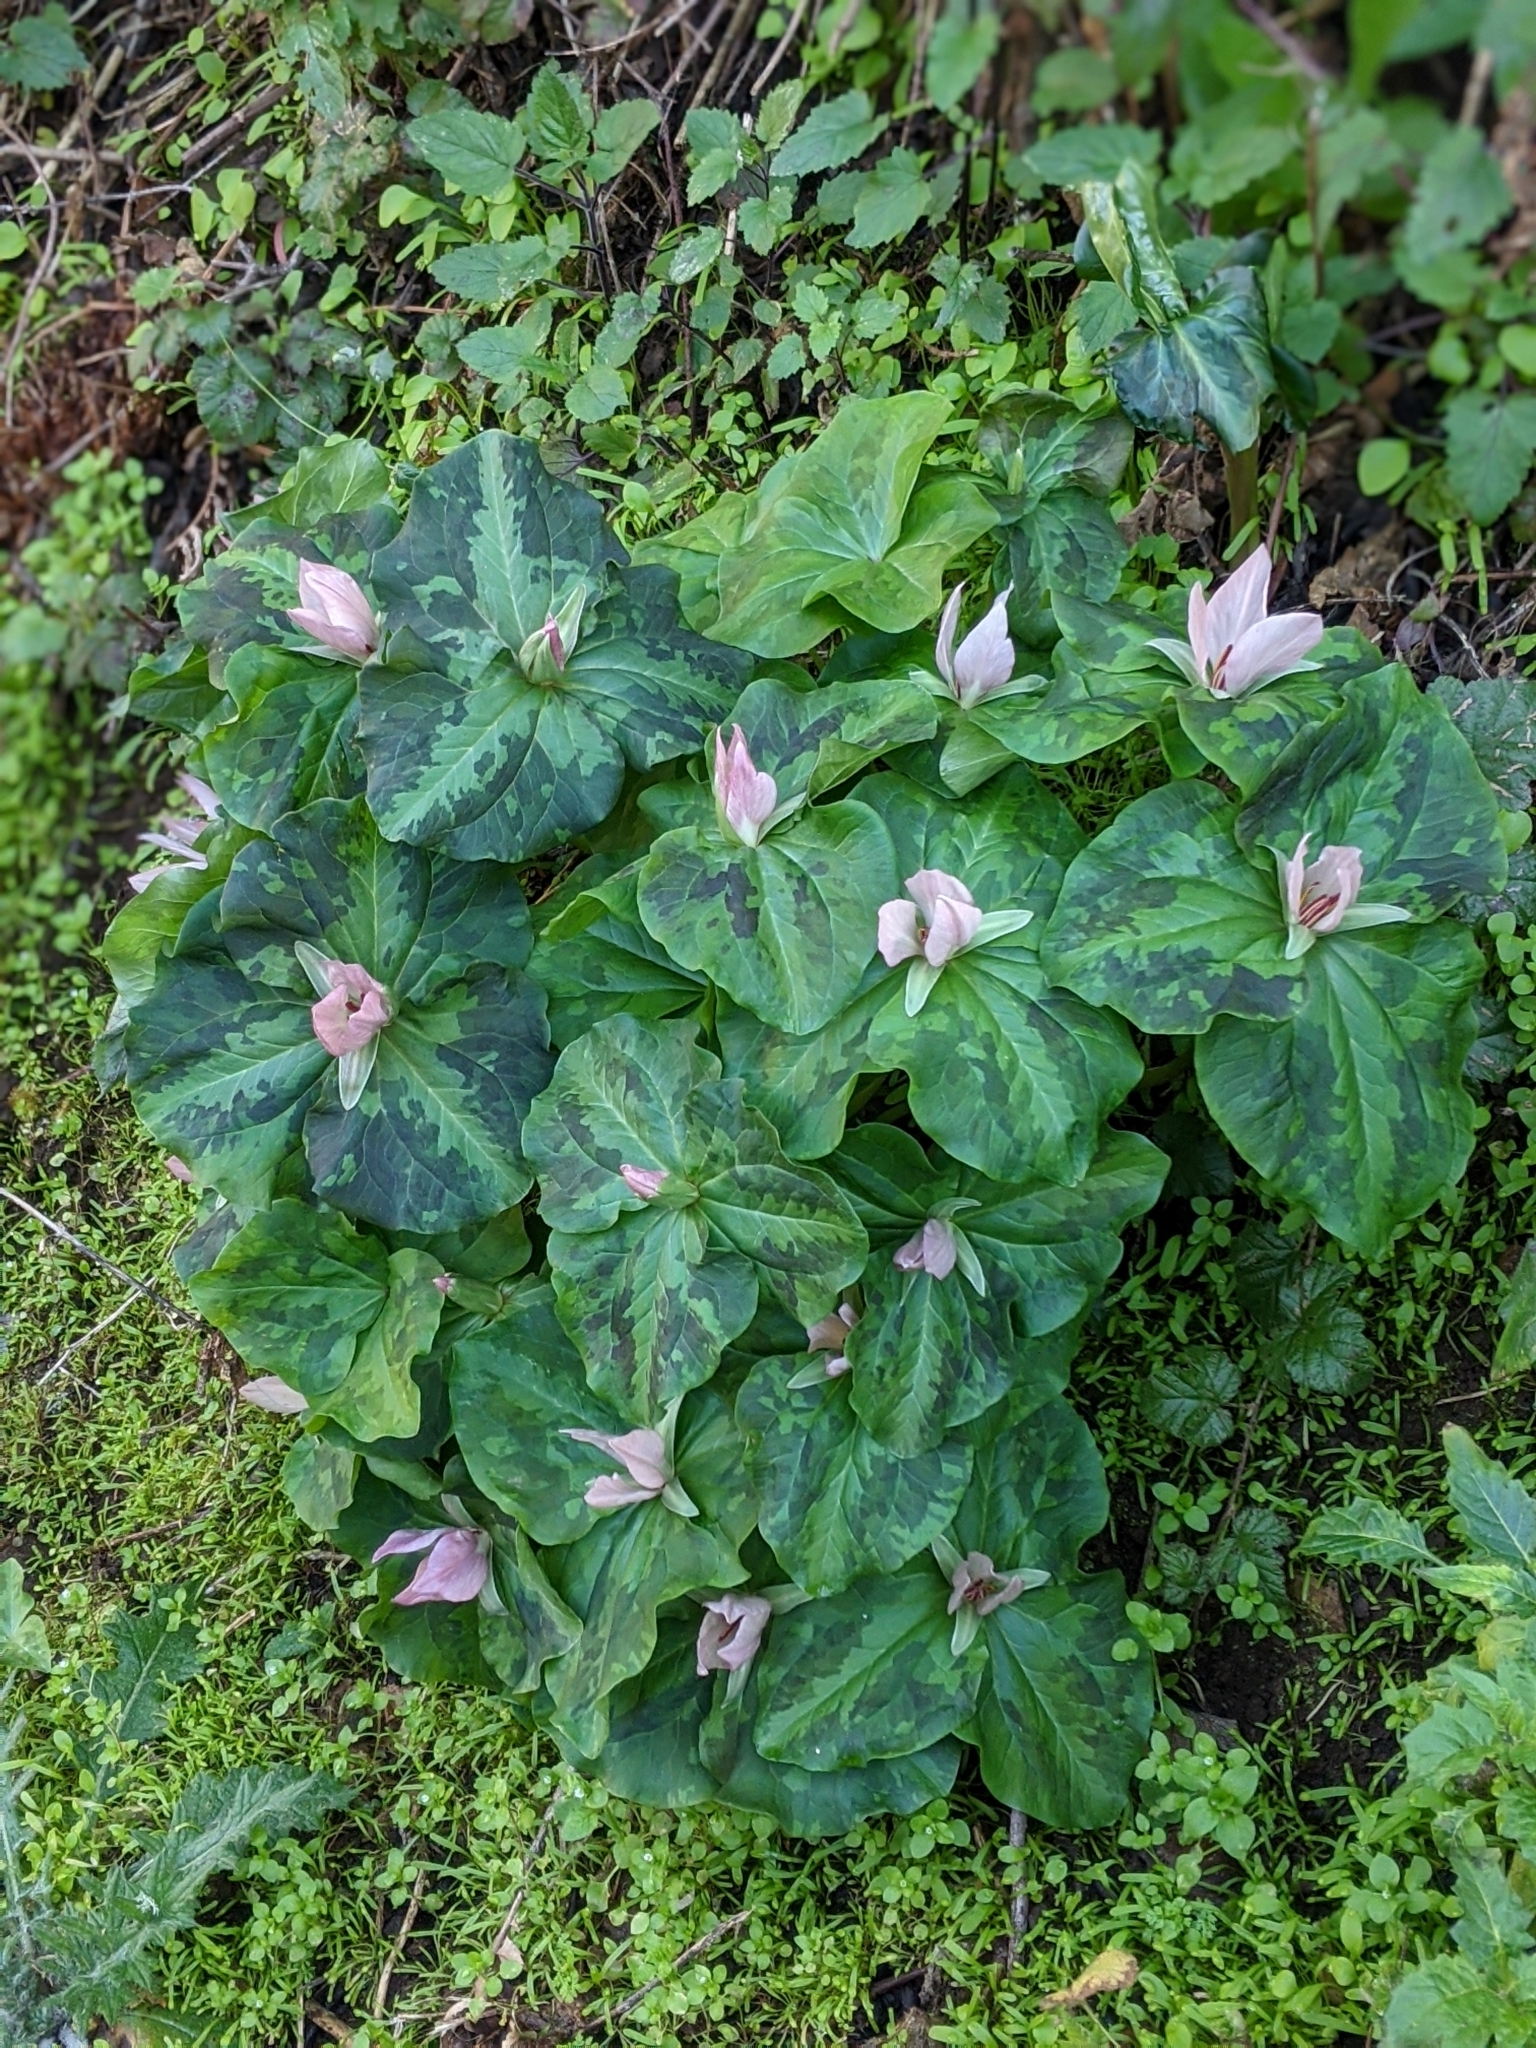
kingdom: Plantae
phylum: Tracheophyta
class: Liliopsida
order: Liliales
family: Melanthiaceae
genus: Trillium
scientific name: Trillium chloropetalum
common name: Giant trillium
